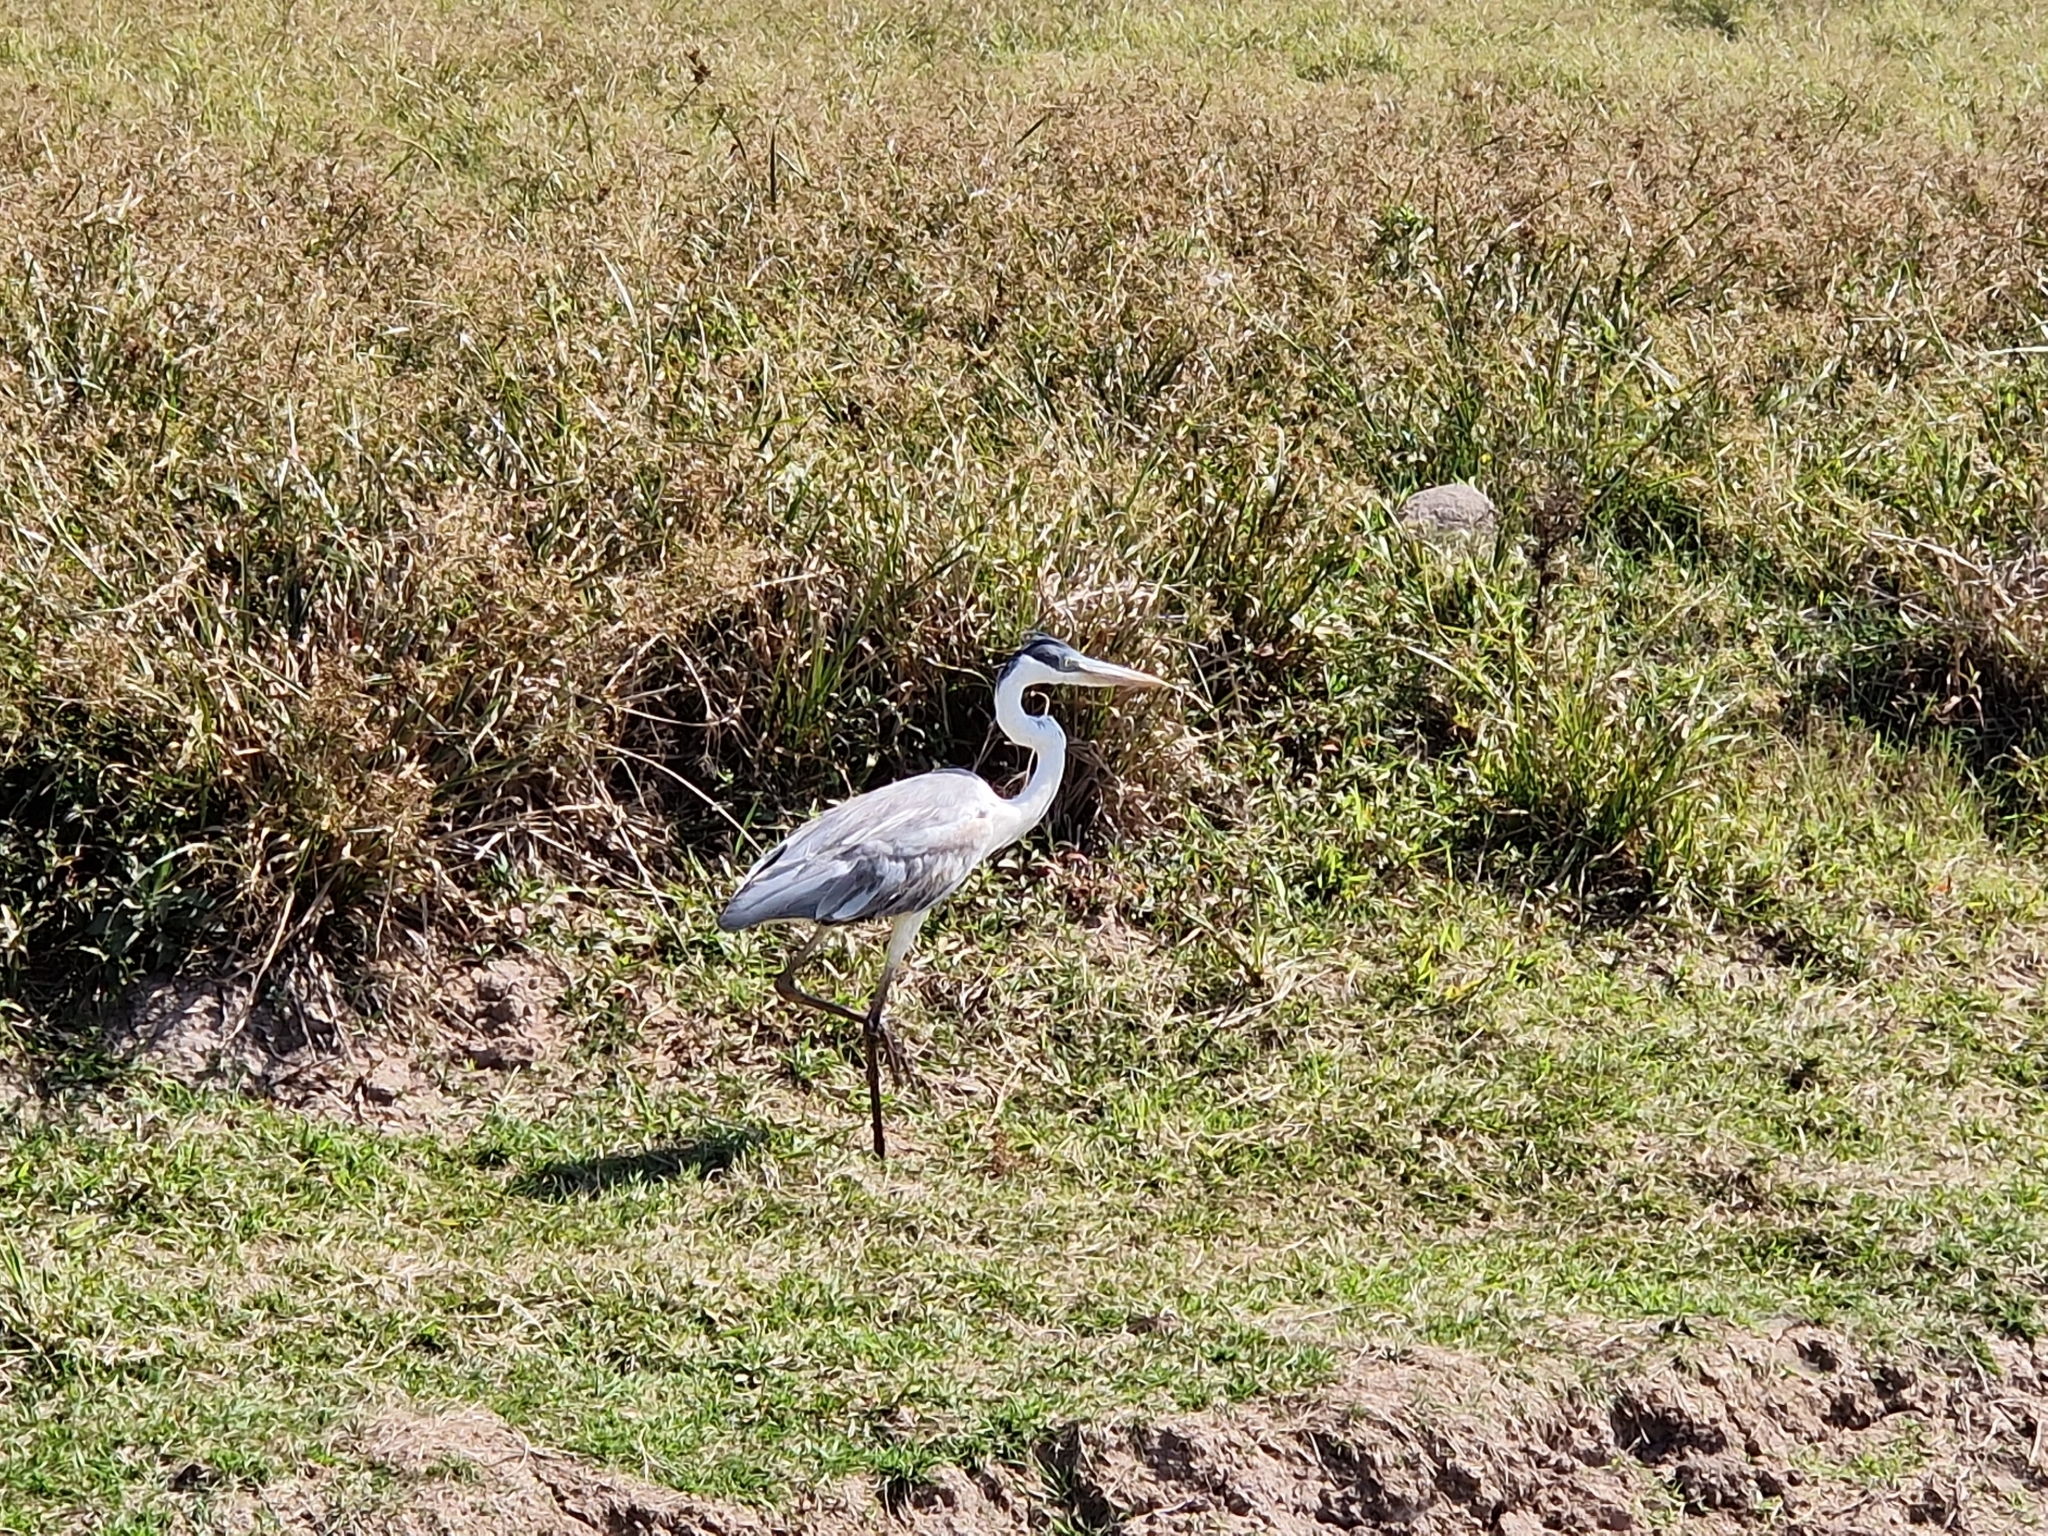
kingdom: Animalia
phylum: Chordata
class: Aves
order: Pelecaniformes
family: Ardeidae
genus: Ardea
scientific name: Ardea cocoi
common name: Cocoi heron
